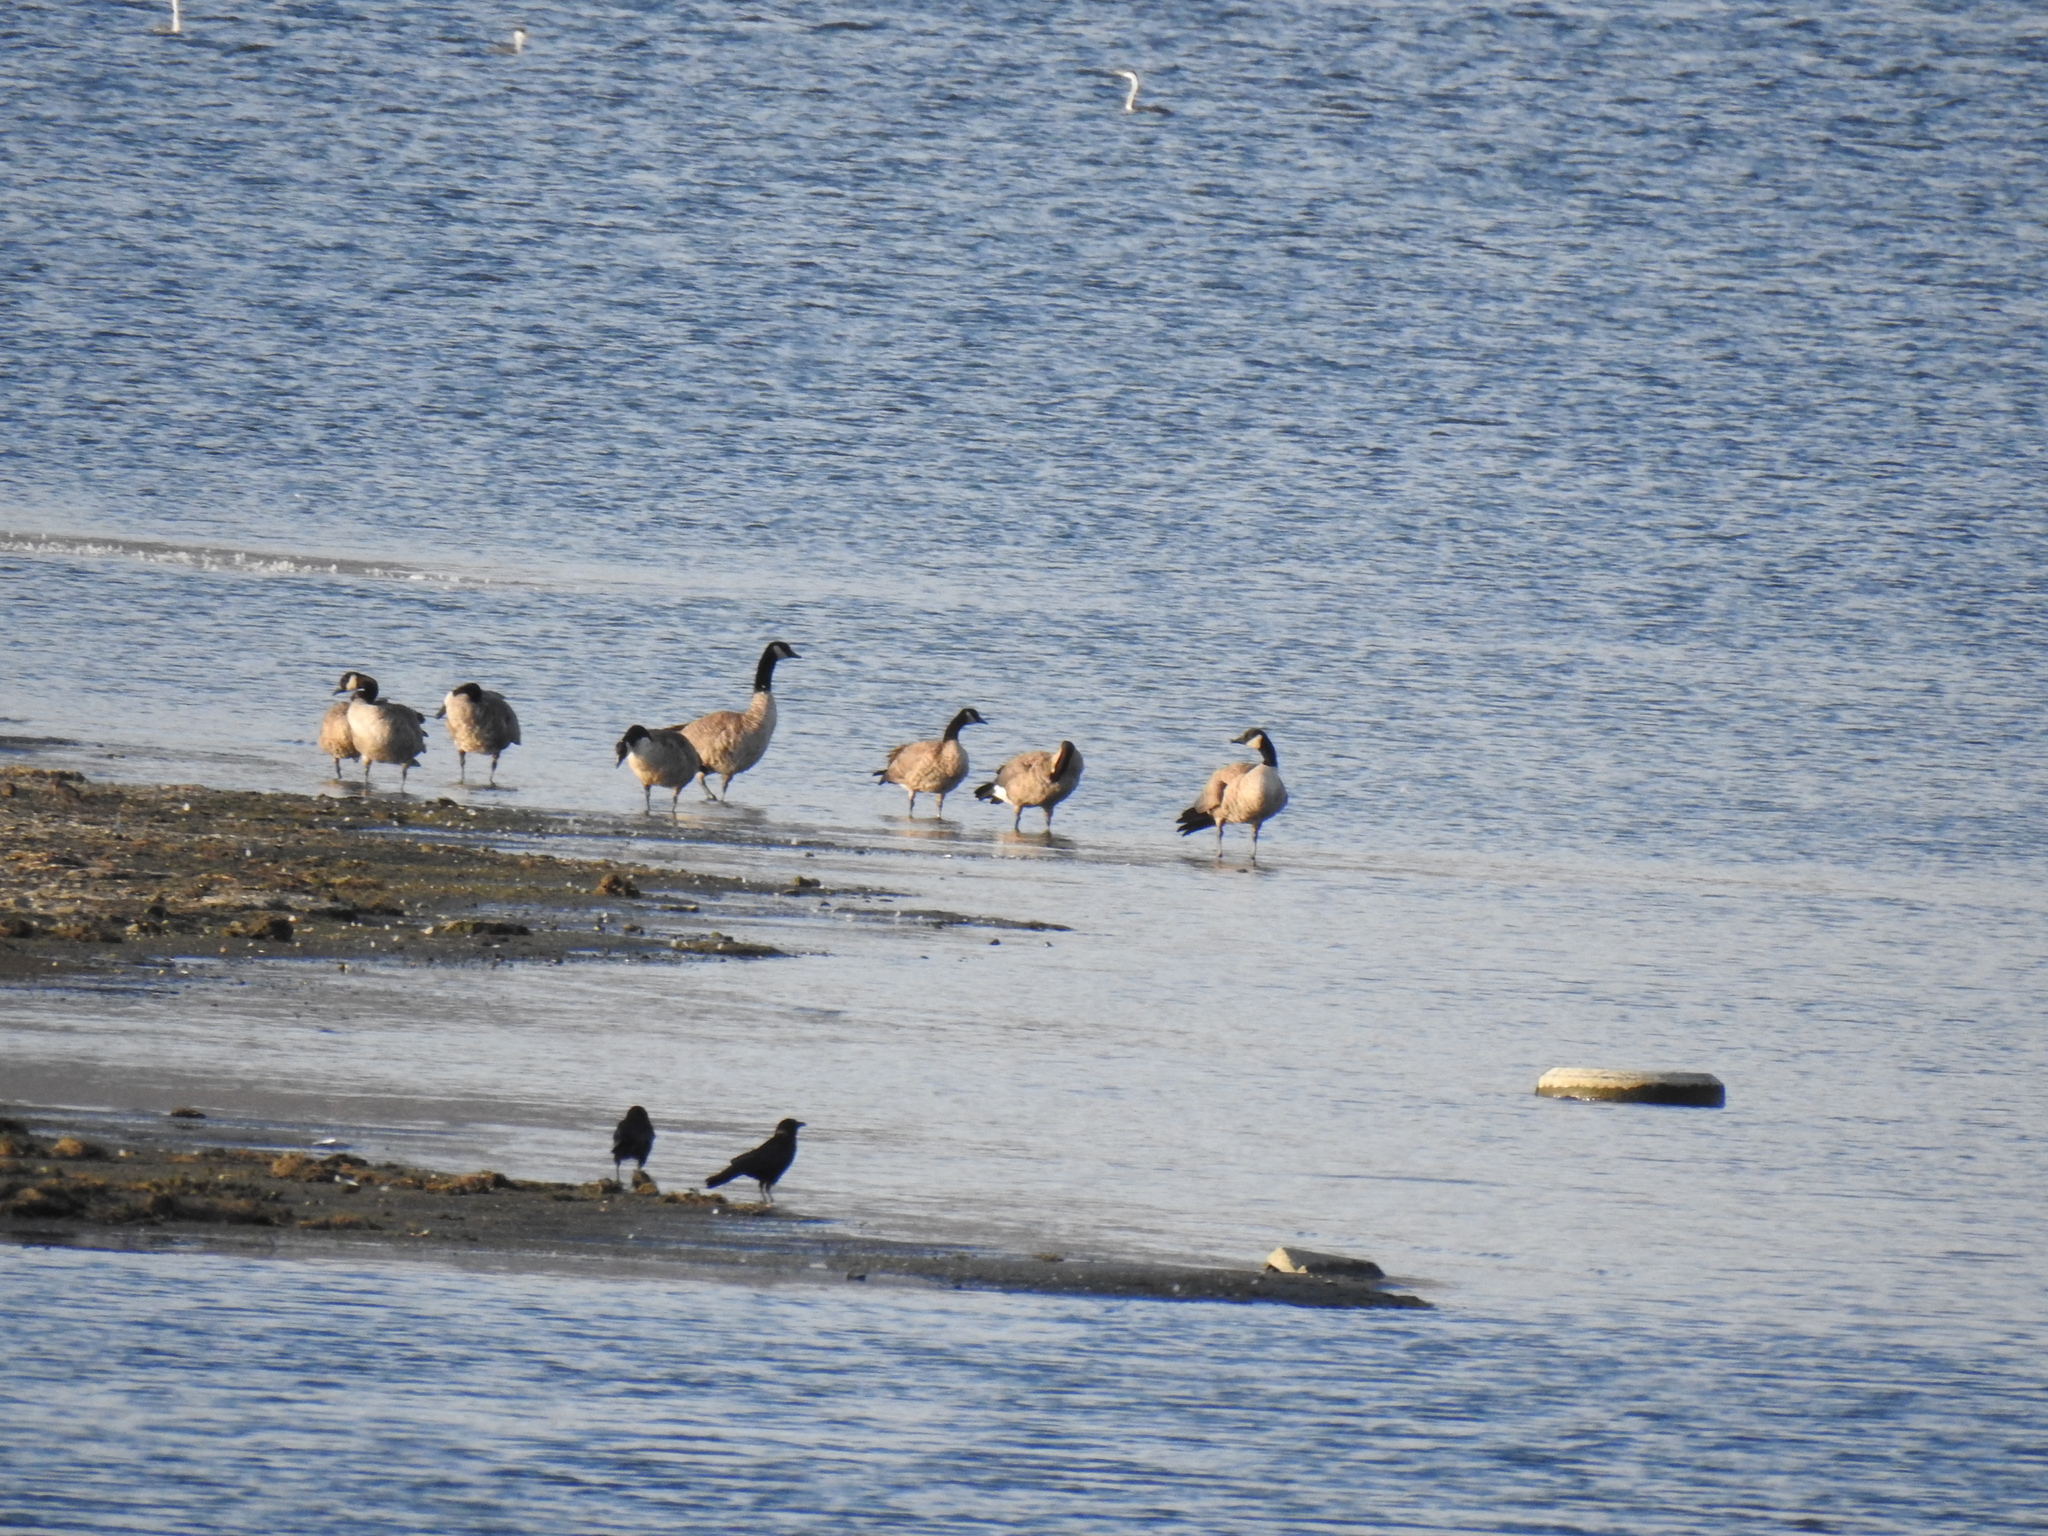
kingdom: Animalia
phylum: Chordata
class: Aves
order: Anseriformes
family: Anatidae
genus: Branta
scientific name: Branta canadensis
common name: Canada goose
